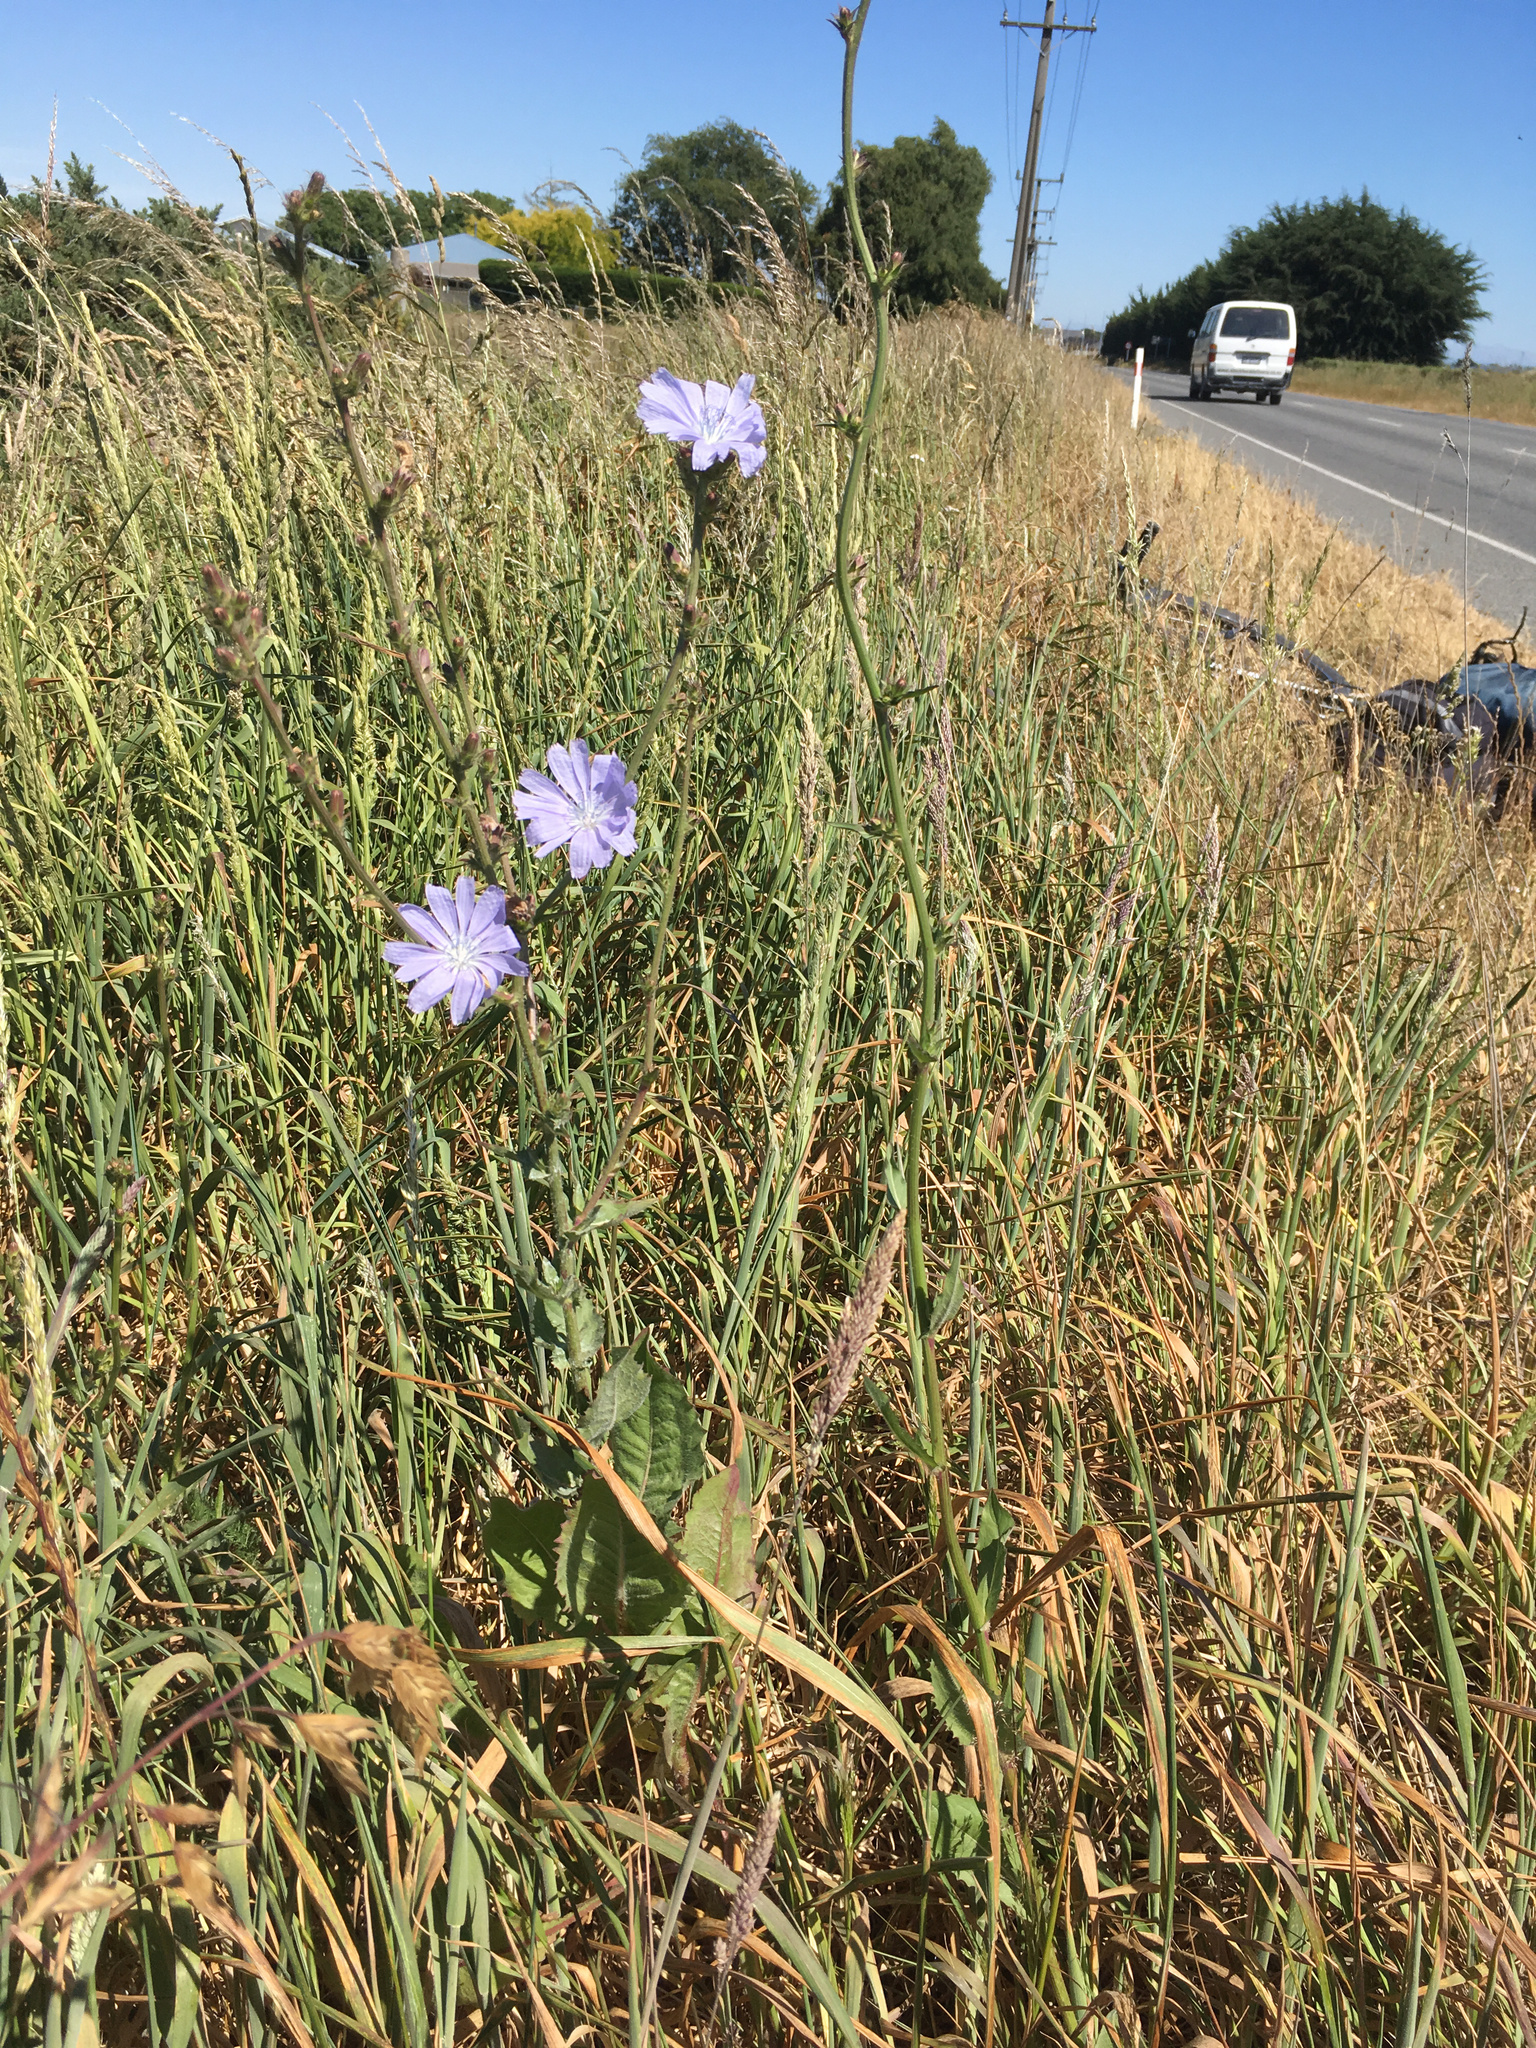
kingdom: Plantae
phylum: Tracheophyta
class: Magnoliopsida
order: Asterales
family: Asteraceae
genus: Cichorium
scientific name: Cichorium intybus
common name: Chicory
